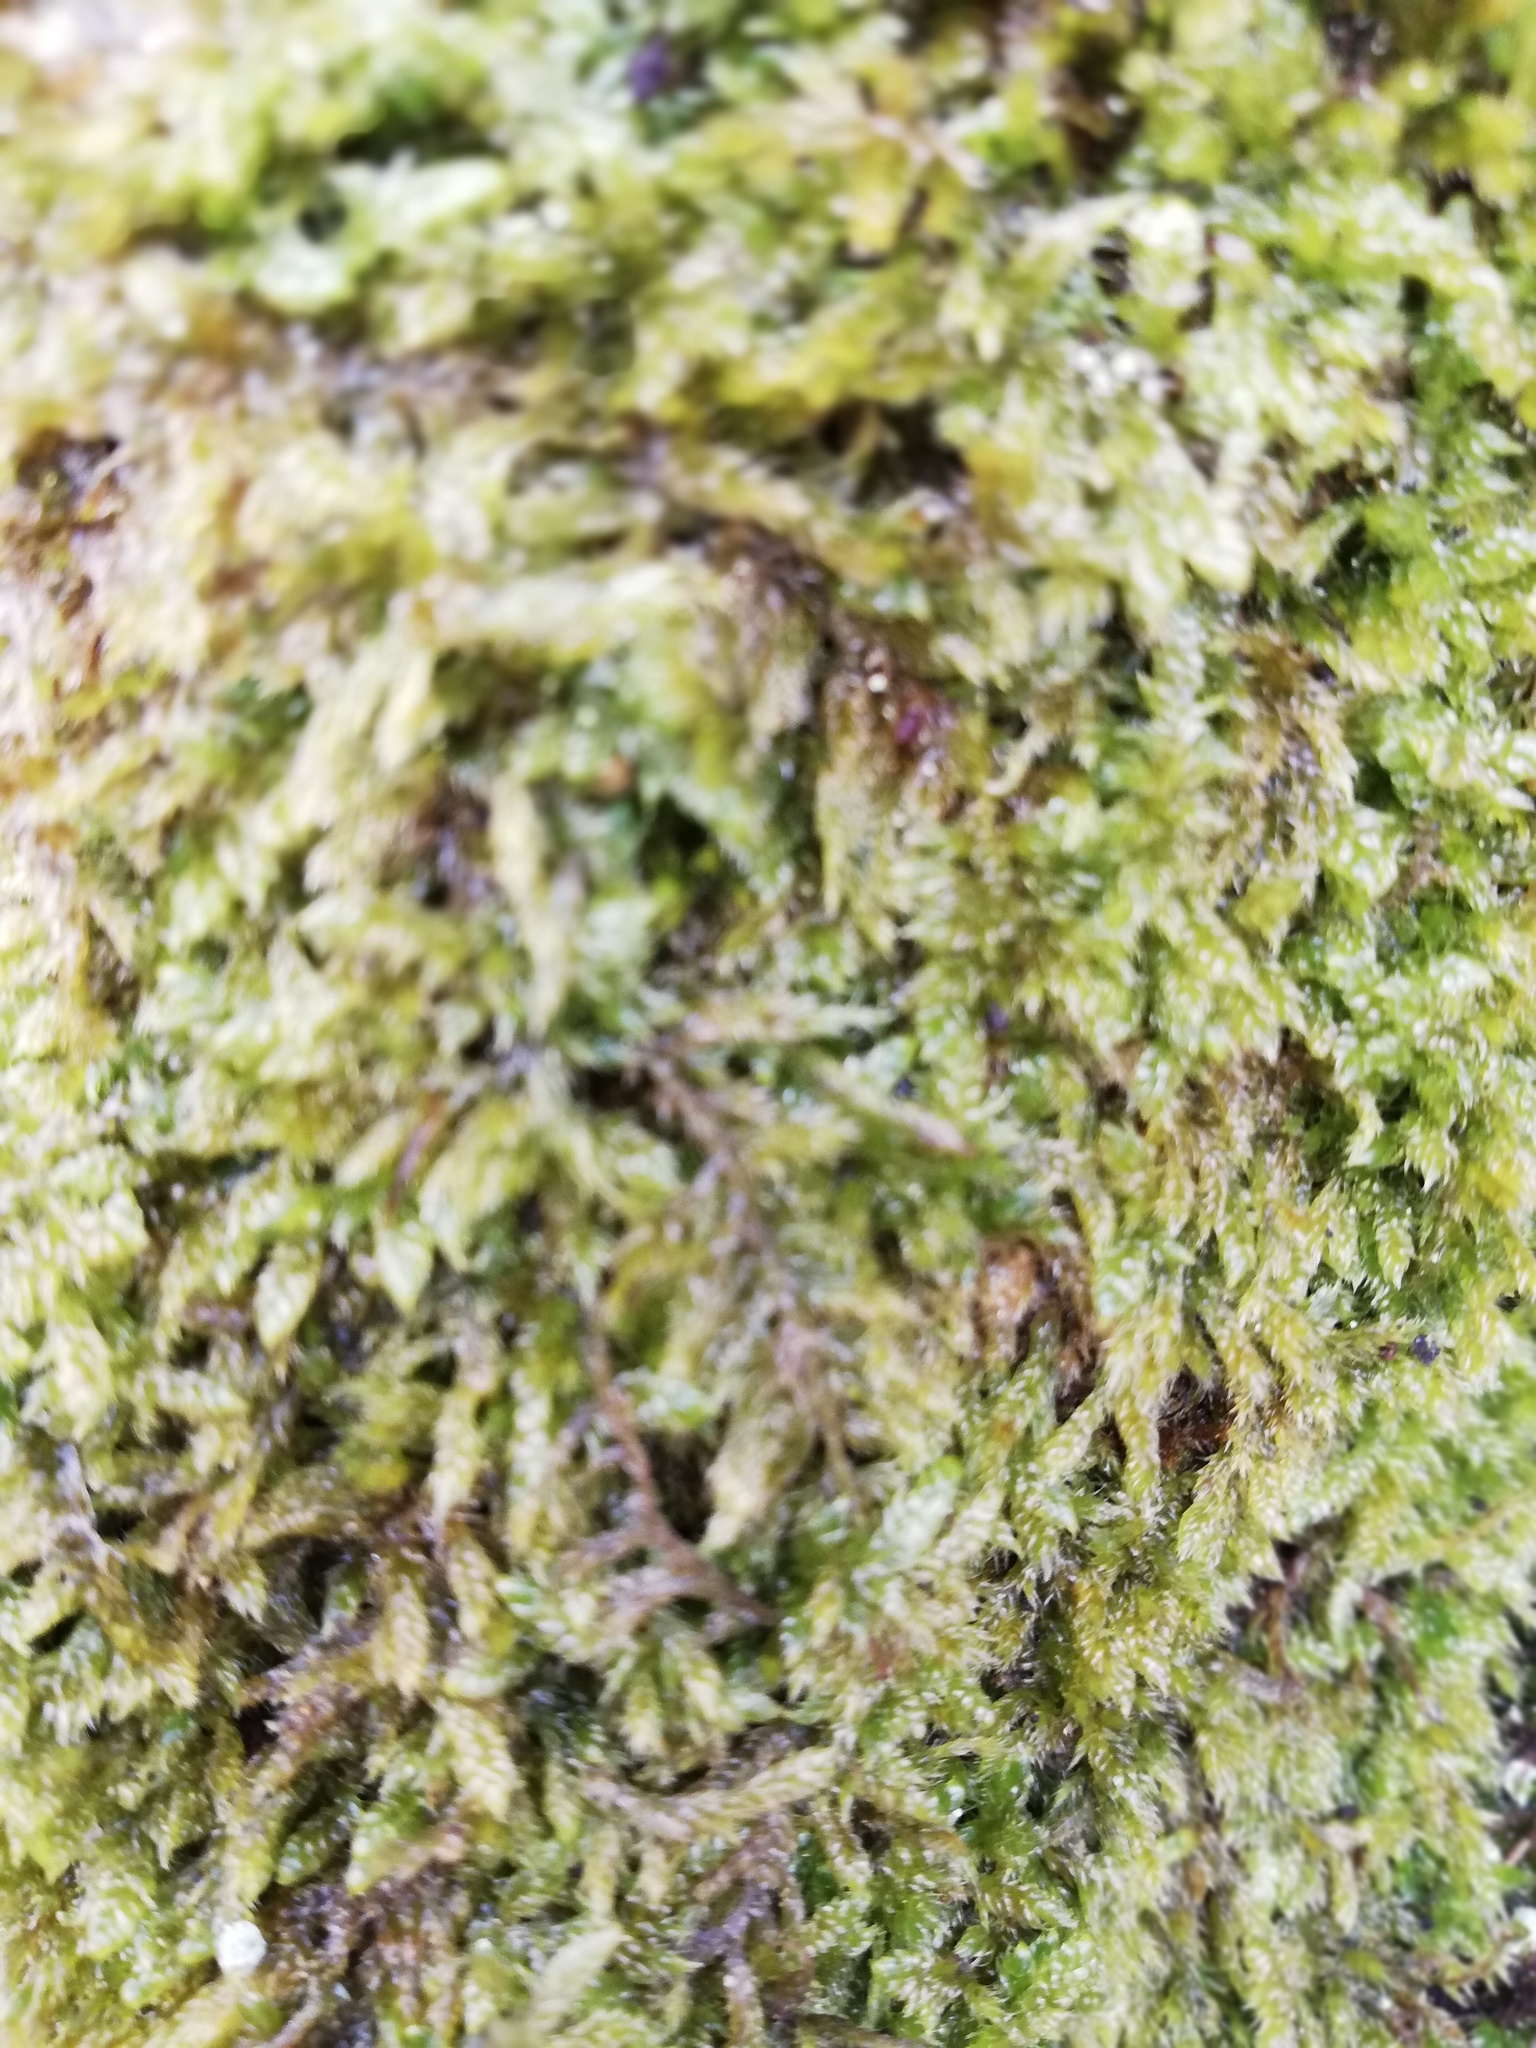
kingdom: Plantae
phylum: Bryophyta
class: Bryopsida
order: Hypnales
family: Hypnaceae
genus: Hypnum
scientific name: Hypnum cupressiforme
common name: Cypress-leaved plait-moss
